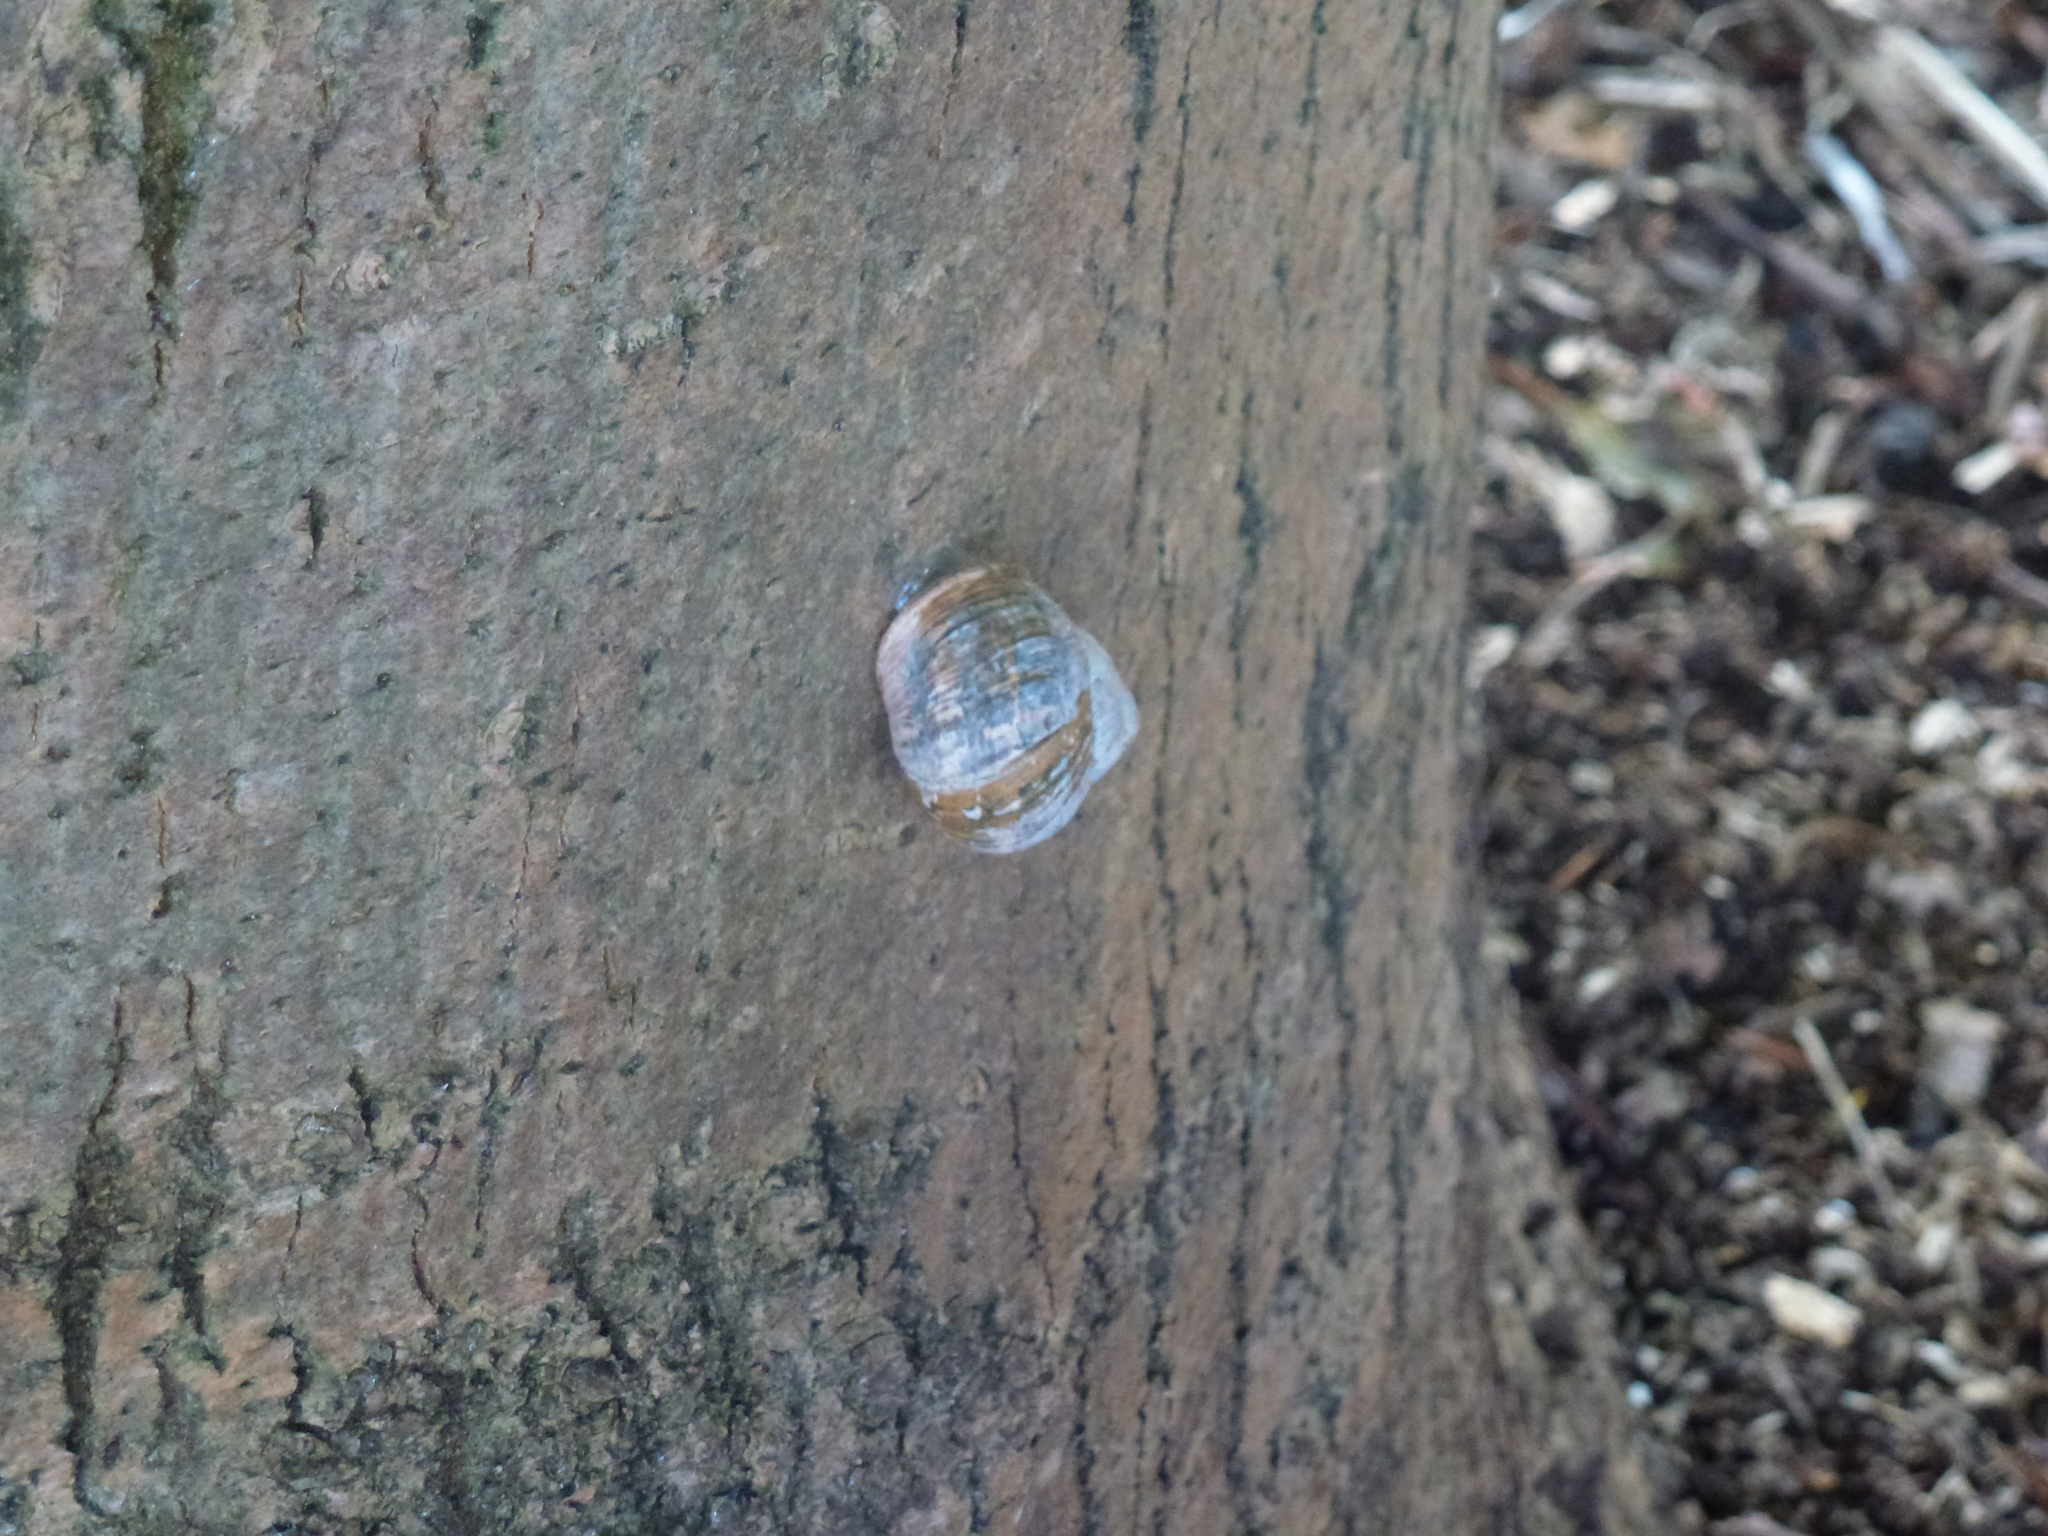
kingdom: Animalia
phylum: Mollusca
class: Gastropoda
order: Stylommatophora
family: Helicidae
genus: Cornu
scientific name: Cornu aspersum
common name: Brown garden snail
